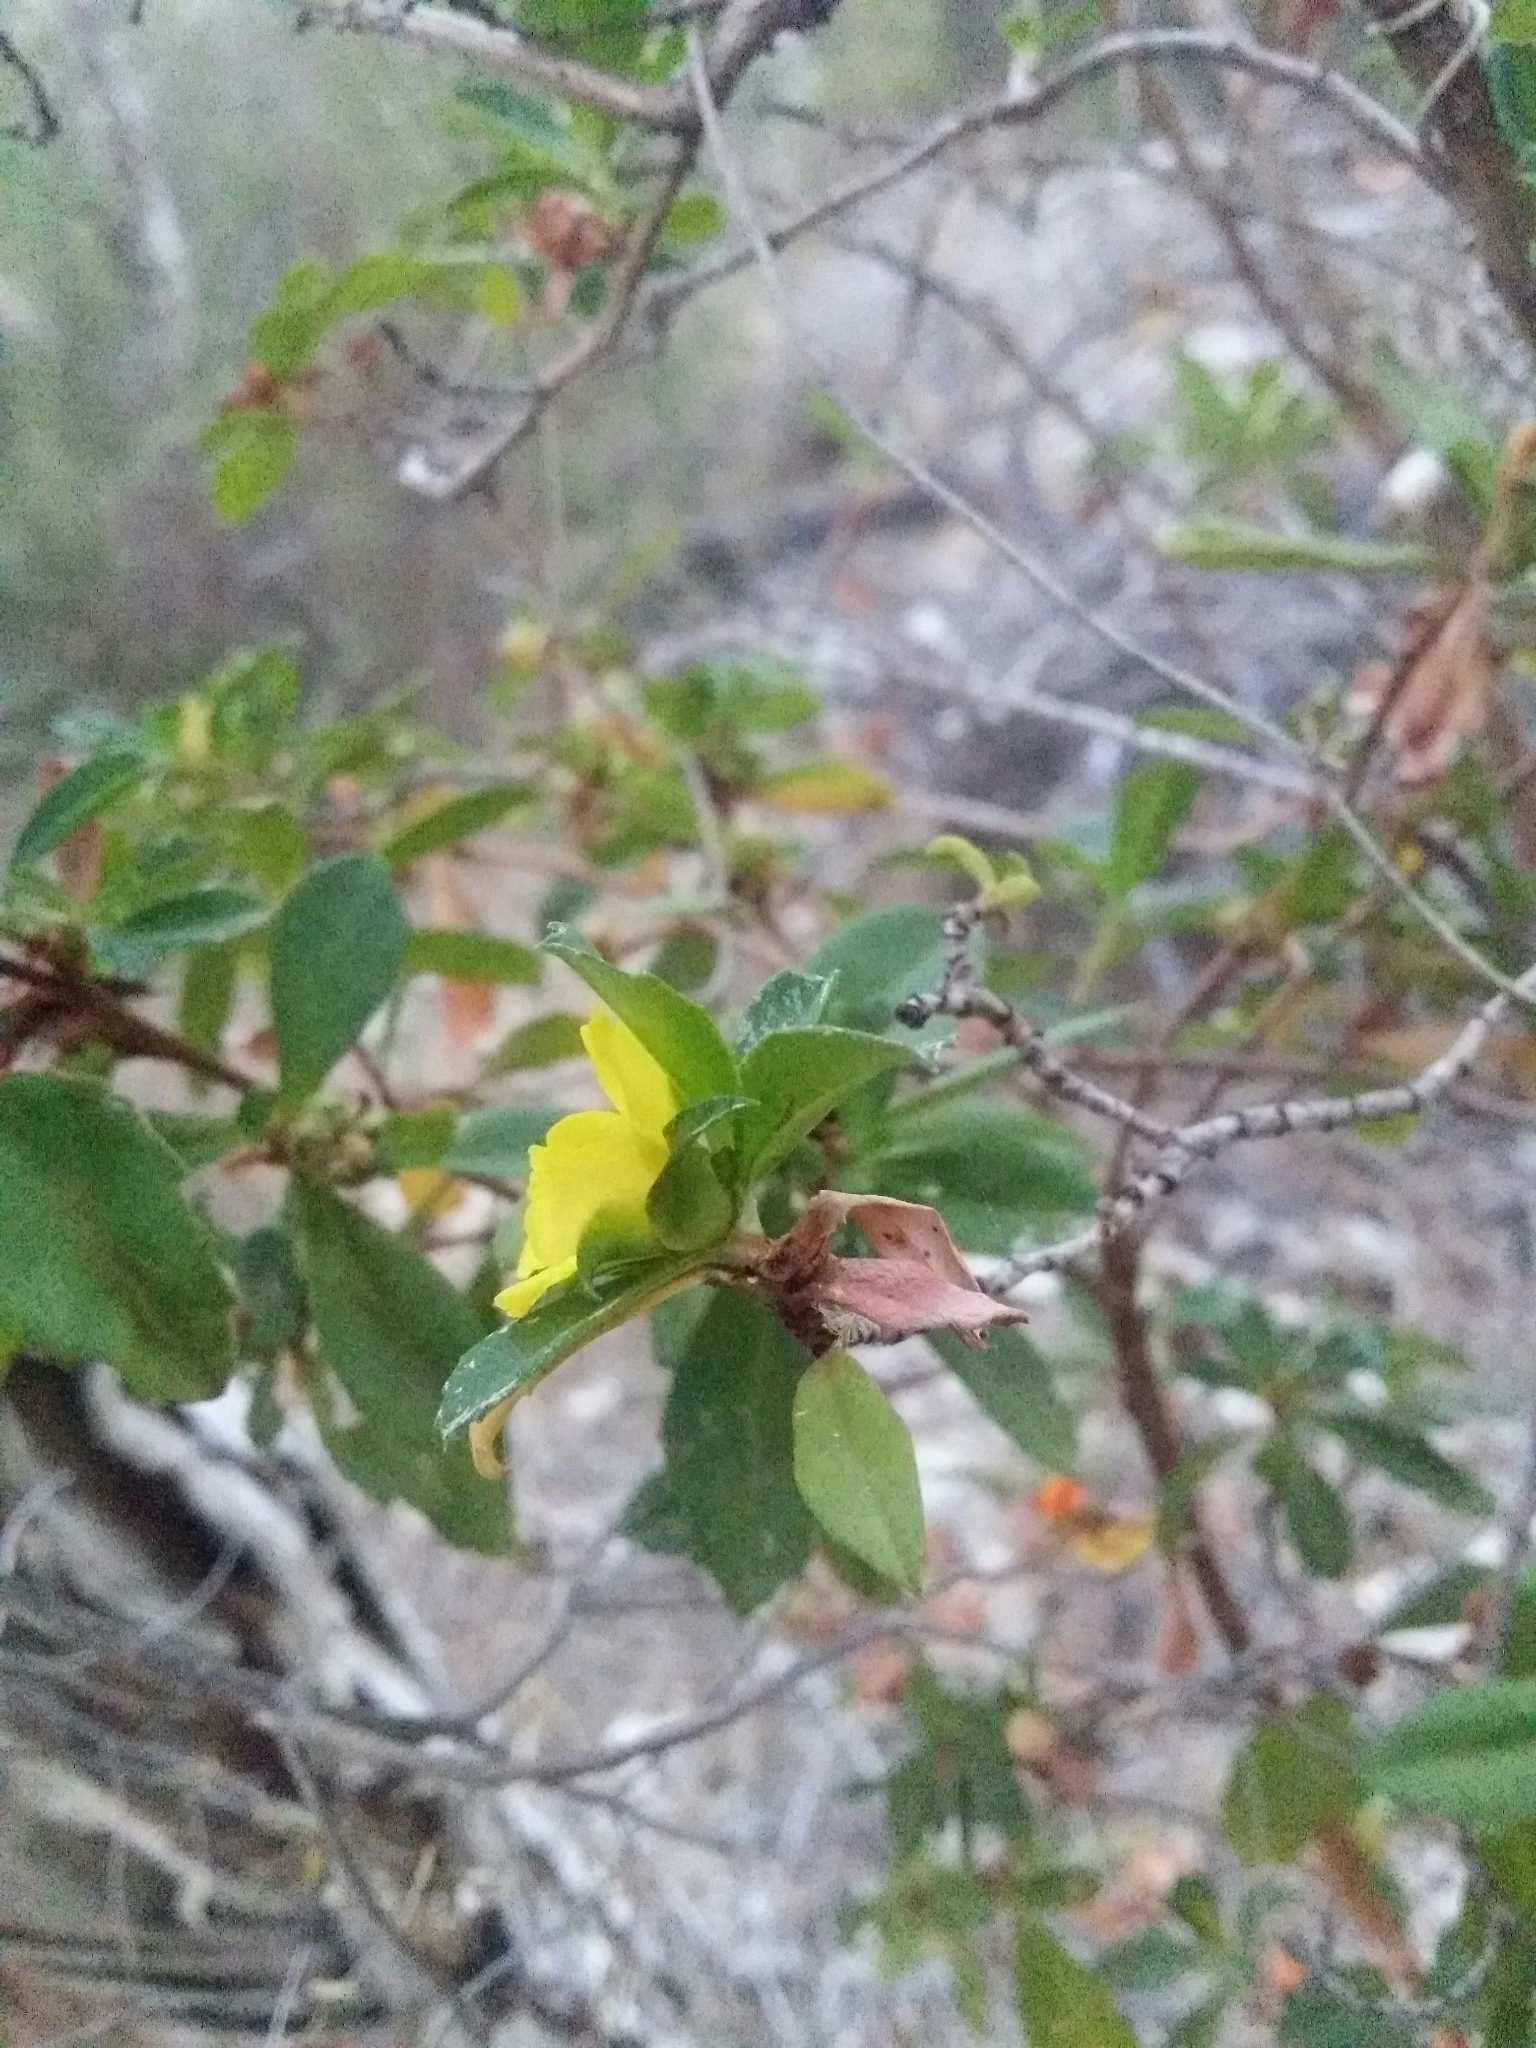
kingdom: Plantae
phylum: Tracheophyta
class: Magnoliopsida
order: Dilleniales
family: Dilleniaceae
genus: Hibbertia
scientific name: Hibbertia cuneiformis
